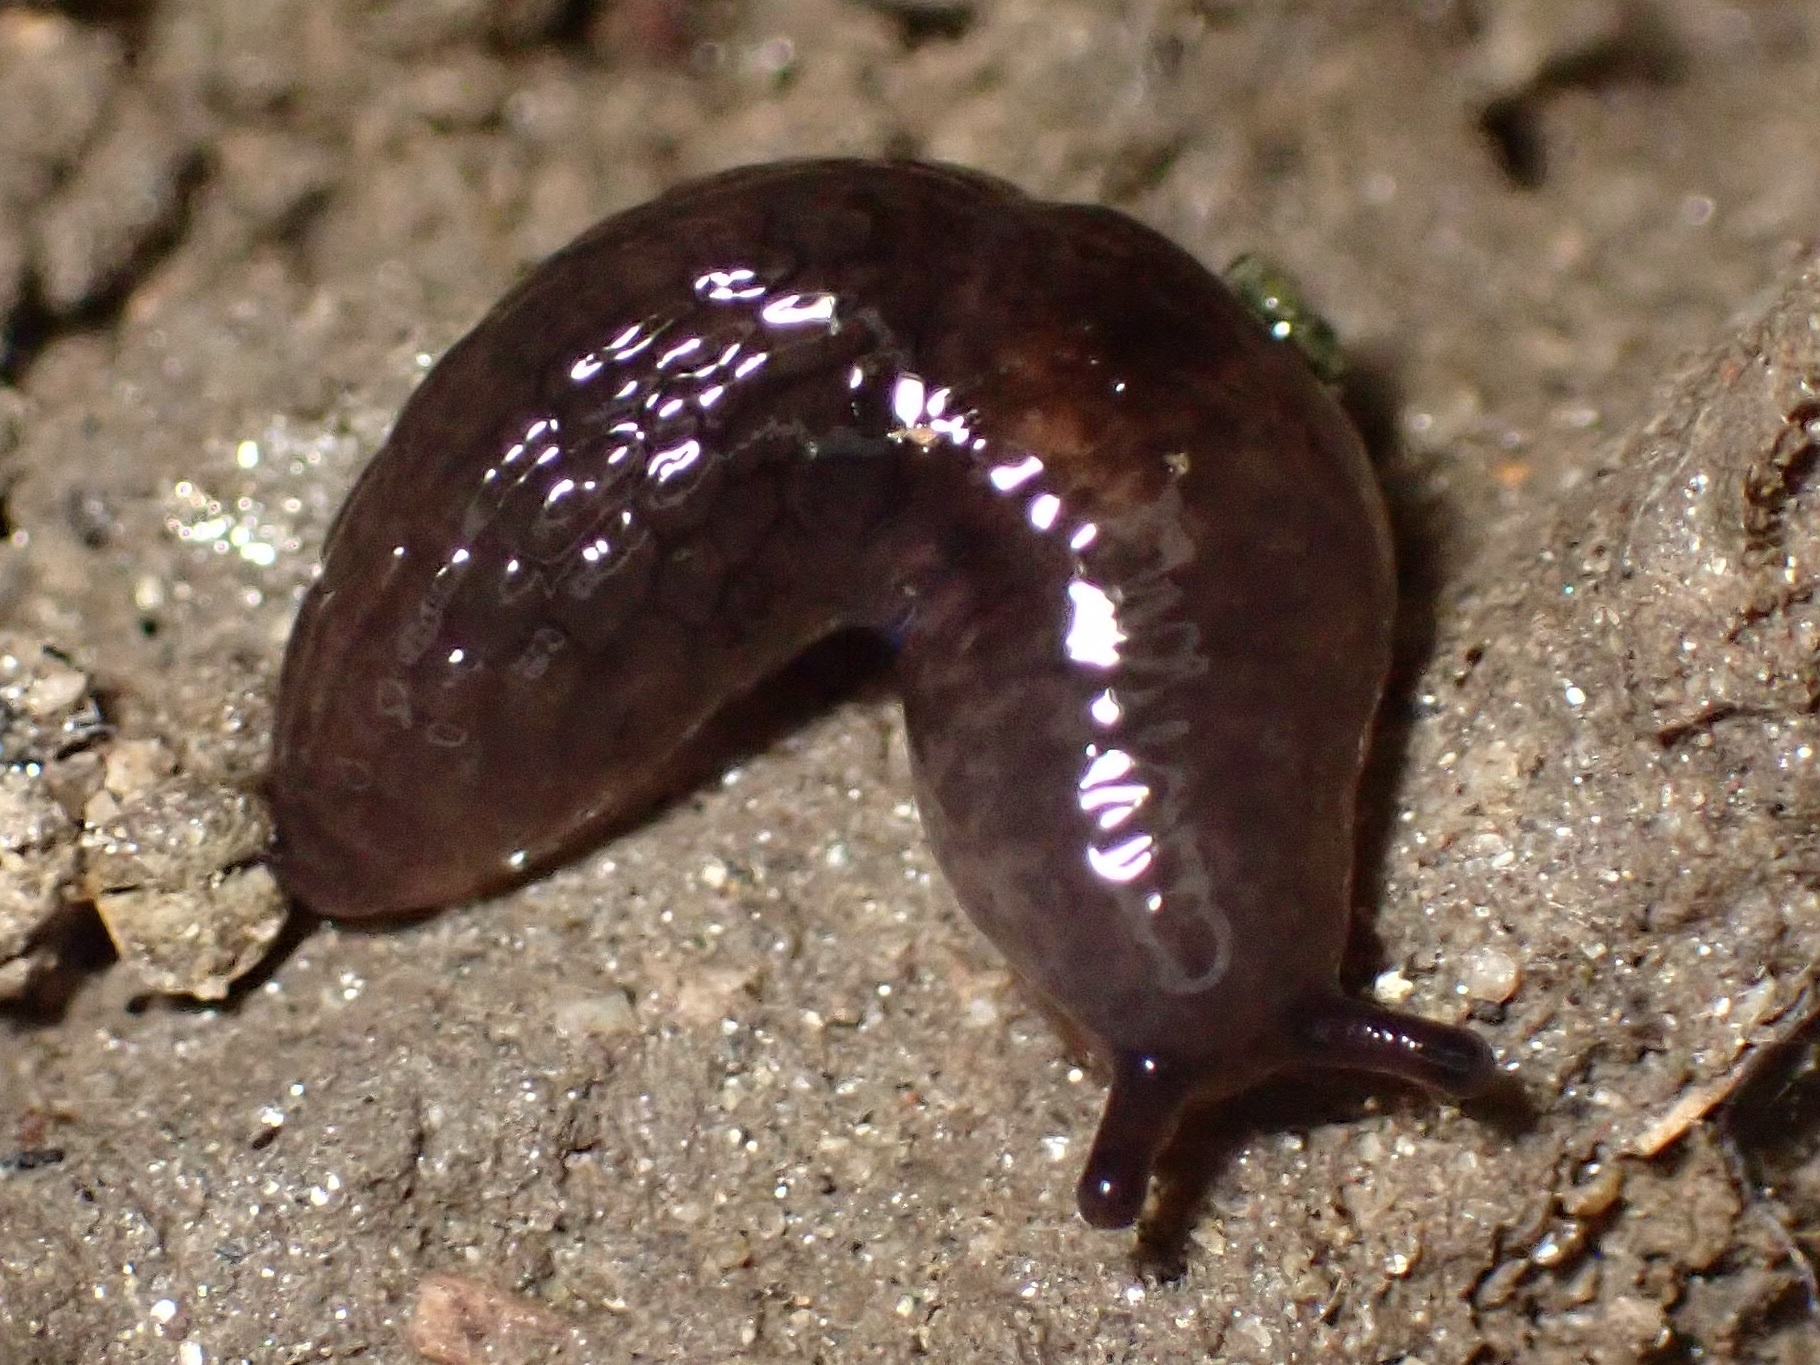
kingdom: Animalia
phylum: Mollusca
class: Gastropoda
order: Stylommatophora
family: Agriolimacidae
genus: Deroceras
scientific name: Deroceras laeve
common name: Marsh slug
